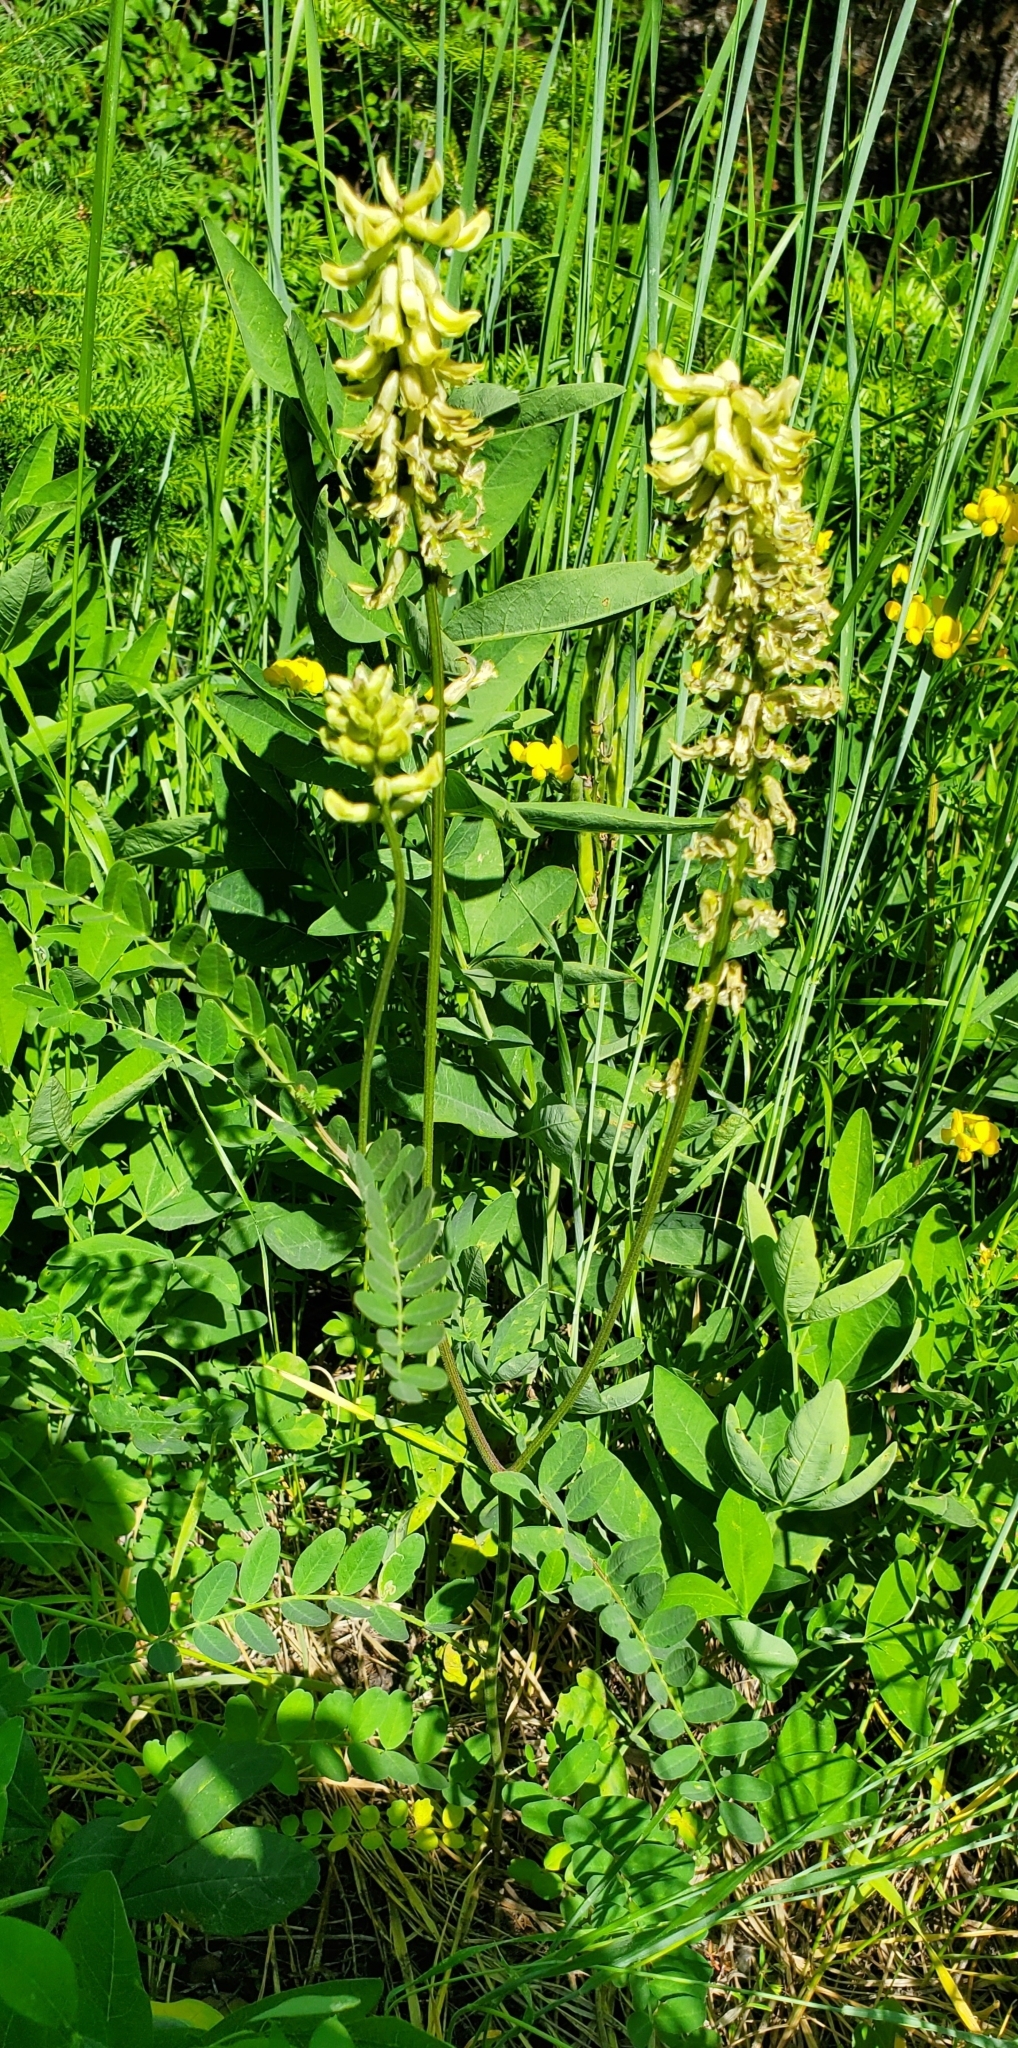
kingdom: Plantae
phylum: Tracheophyta
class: Magnoliopsida
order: Fabales
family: Fabaceae
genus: Astragalus
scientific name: Astragalus canadensis
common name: Canada milk-vetch
